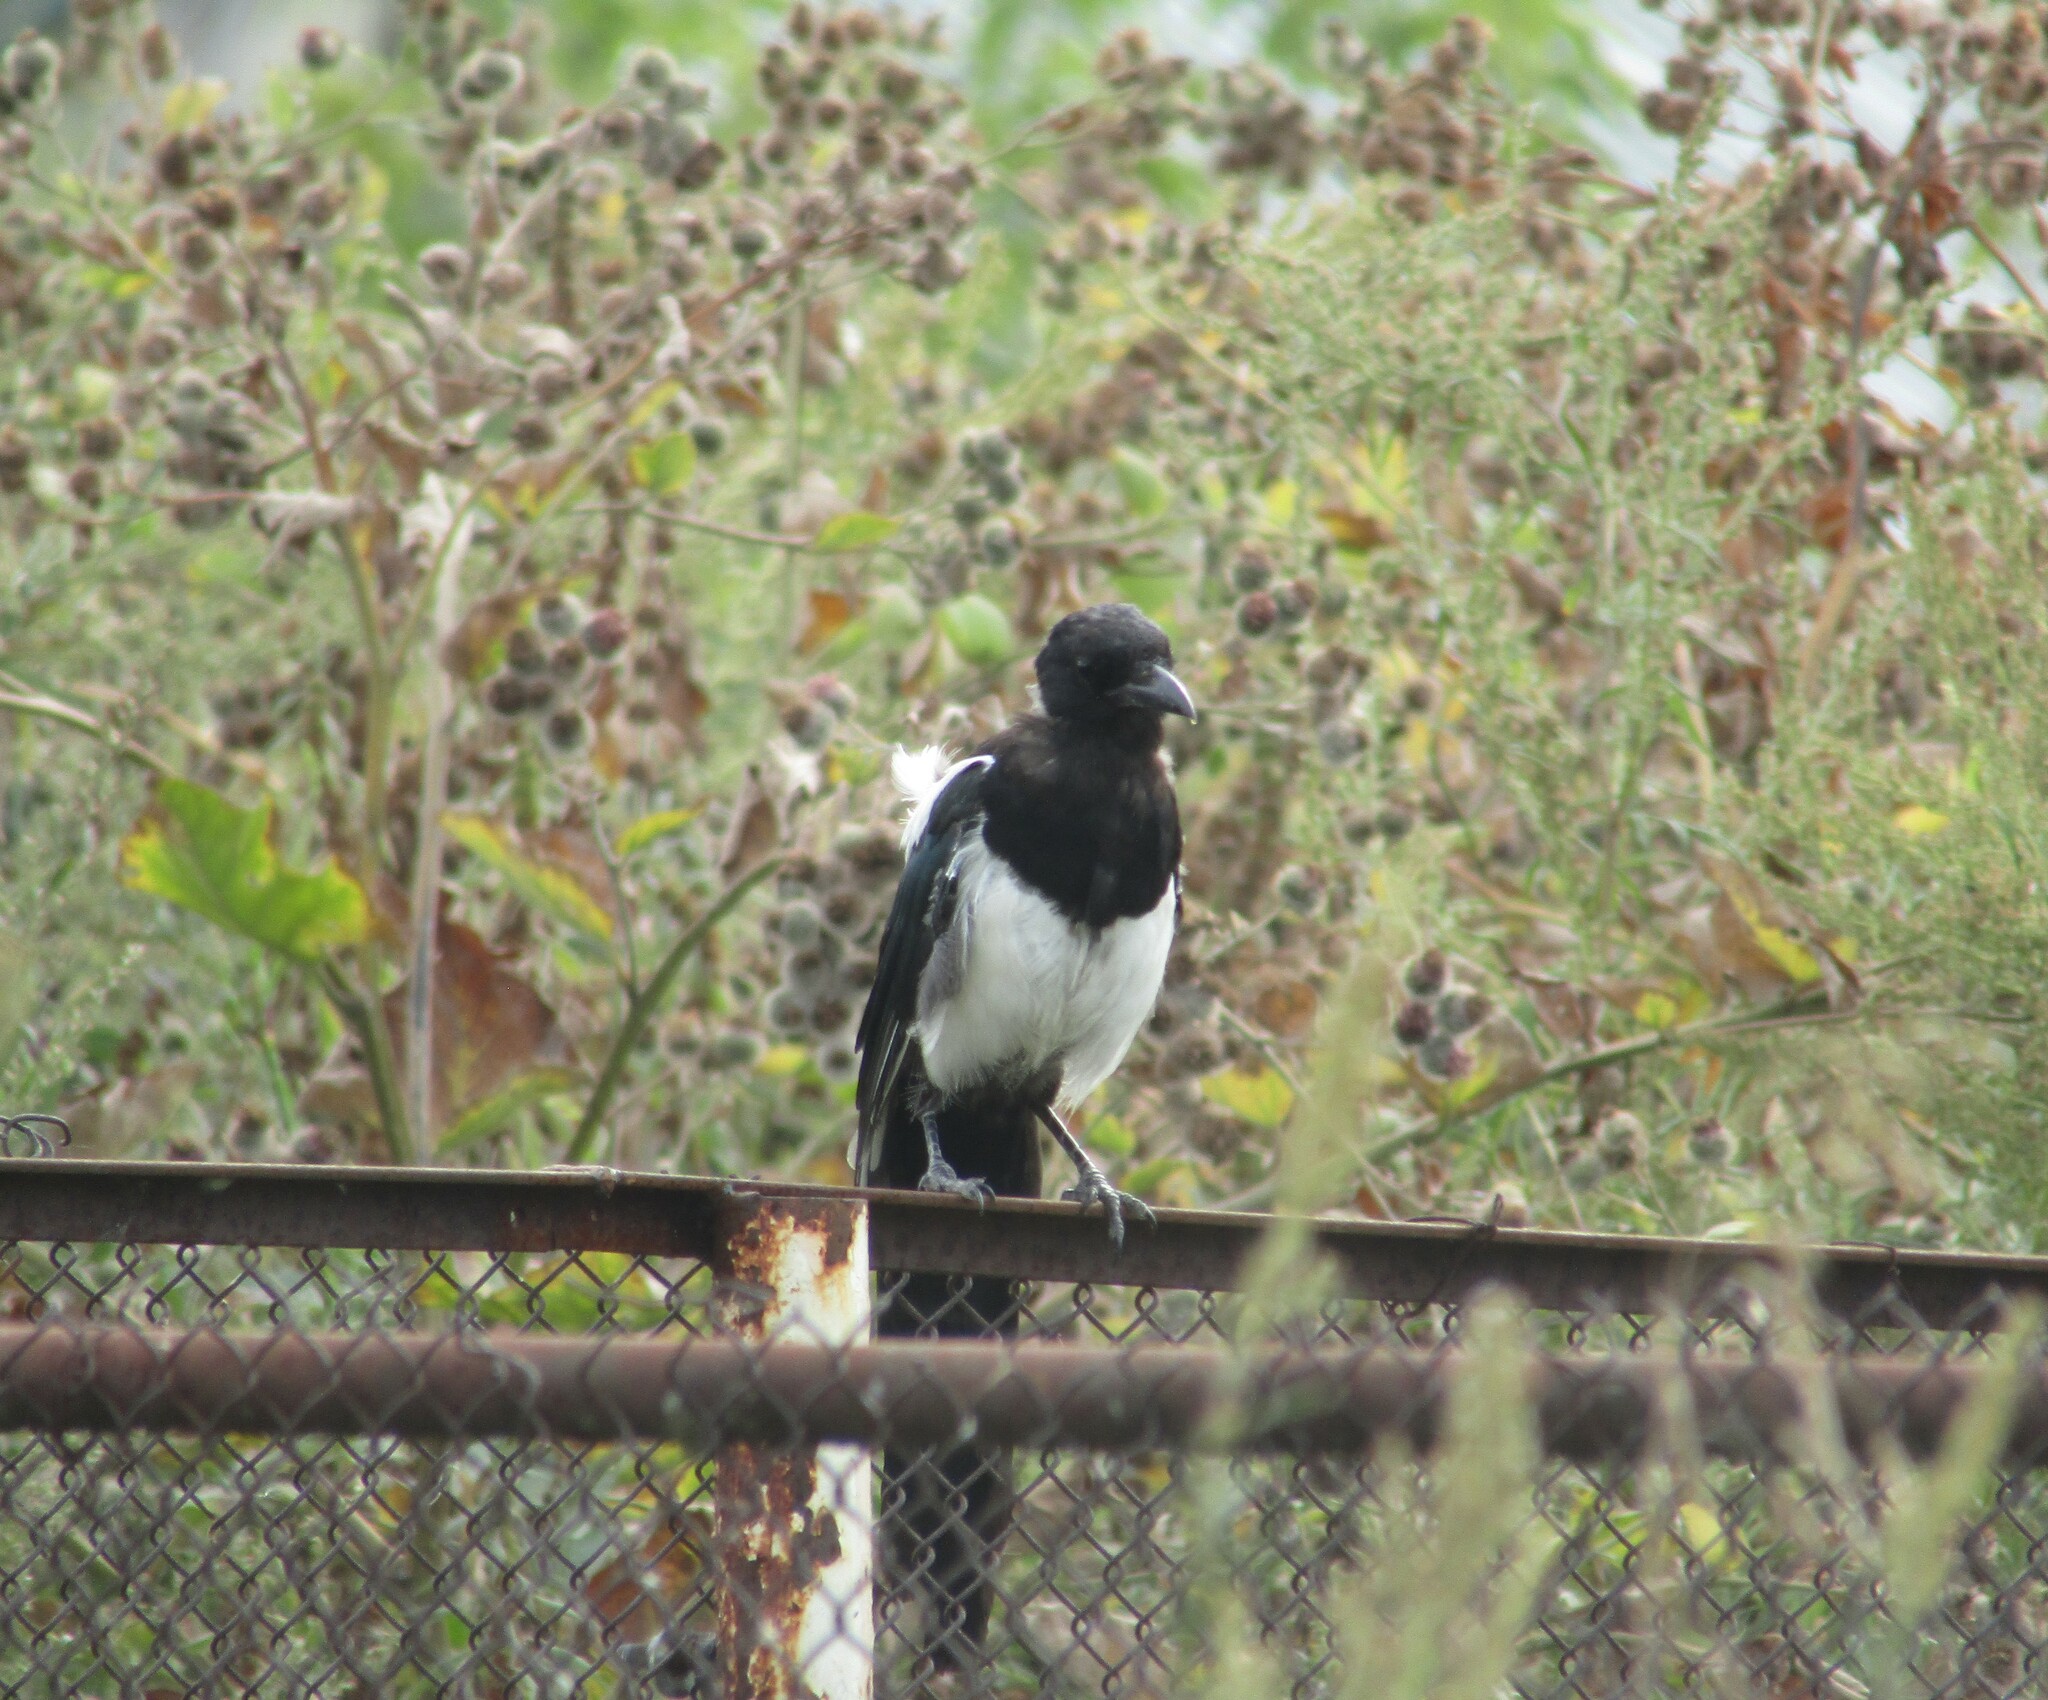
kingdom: Animalia
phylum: Chordata
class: Aves
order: Passeriformes
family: Corvidae
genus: Pica
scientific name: Pica pica
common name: Eurasian magpie
